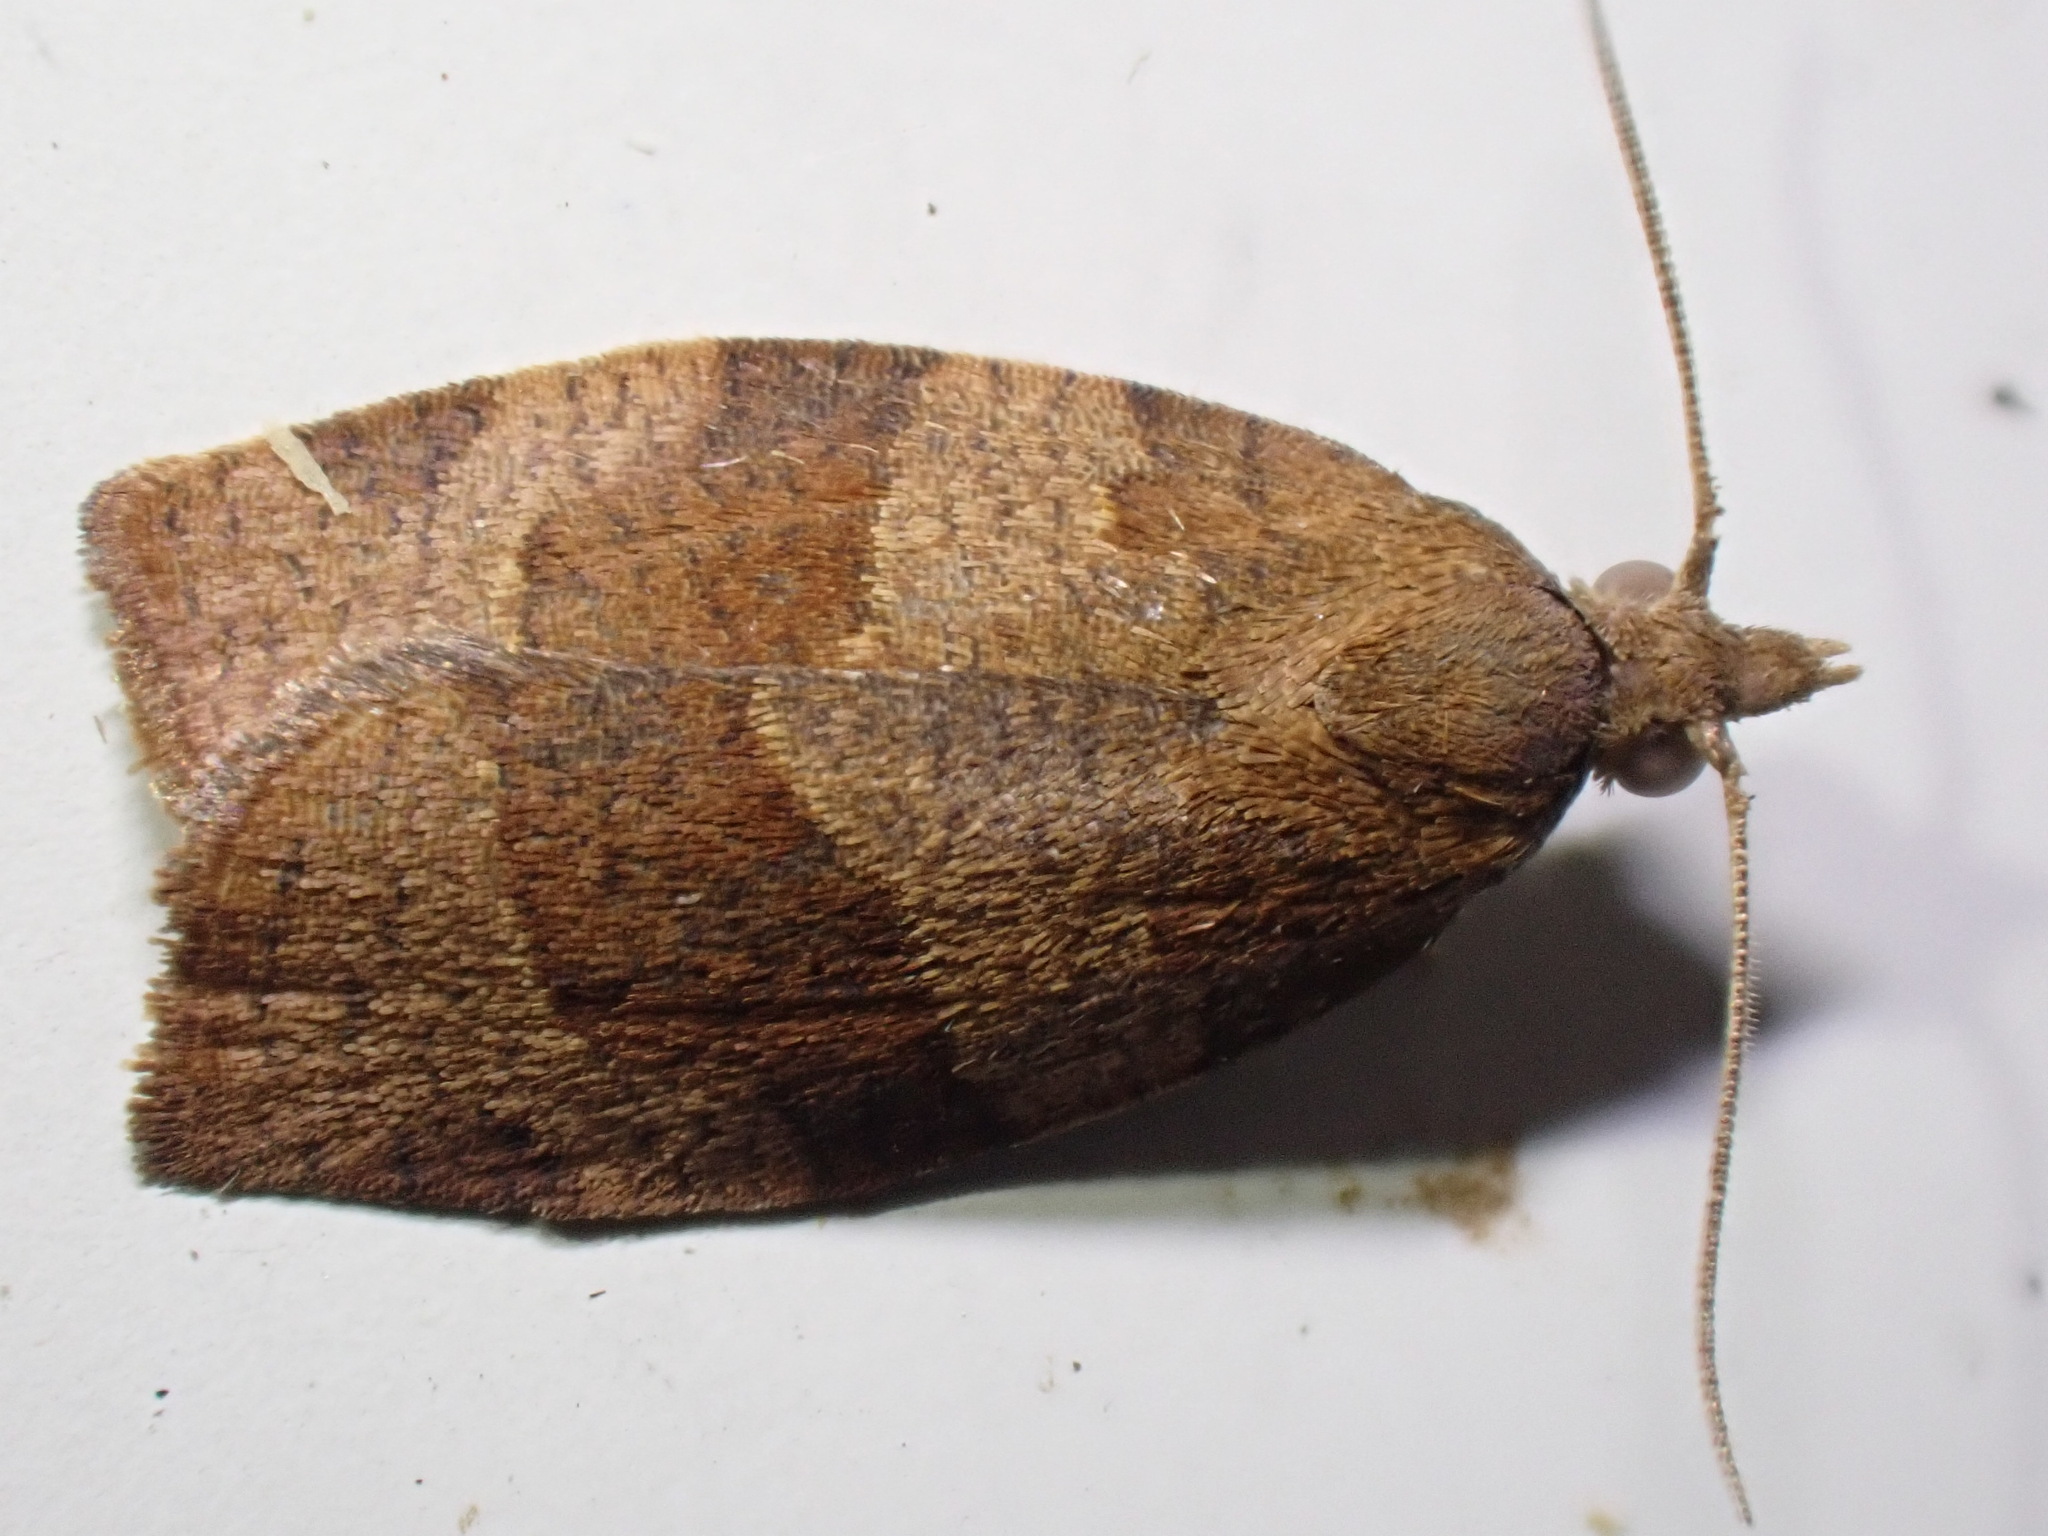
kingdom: Animalia
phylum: Arthropoda
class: Insecta
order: Lepidoptera
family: Tortricidae
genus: Pandemis
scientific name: Pandemis heparana
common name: Dark fruit-tree tortrix
